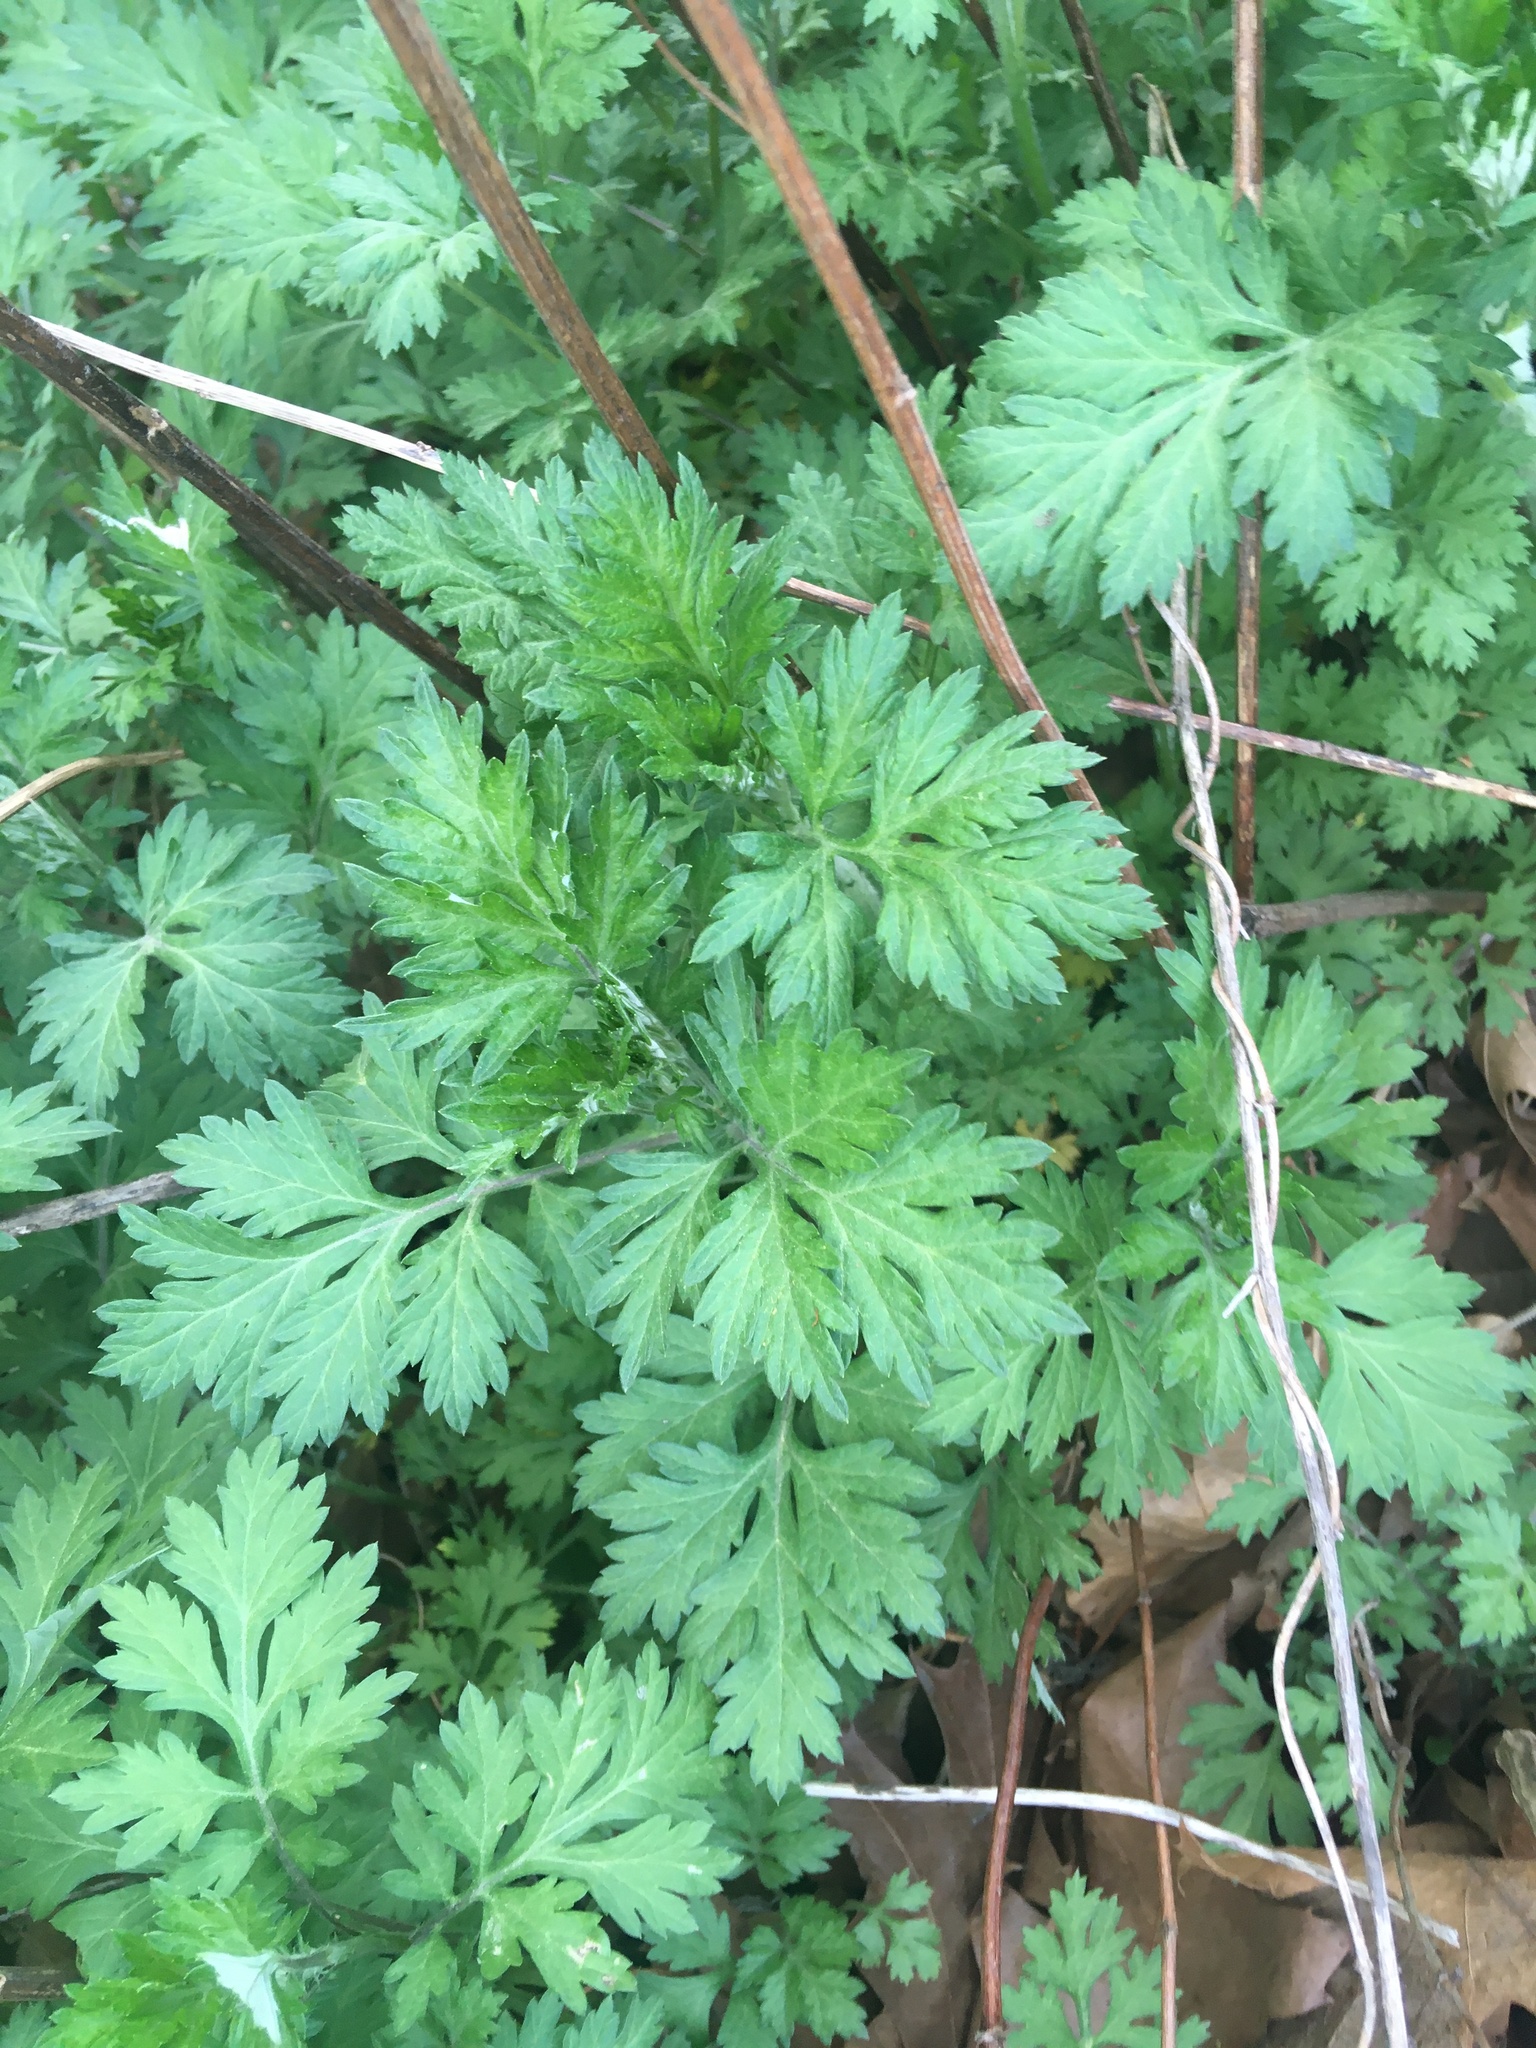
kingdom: Plantae
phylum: Tracheophyta
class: Magnoliopsida
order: Asterales
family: Asteraceae
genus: Artemisia
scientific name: Artemisia vulgaris
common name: Mugwort
